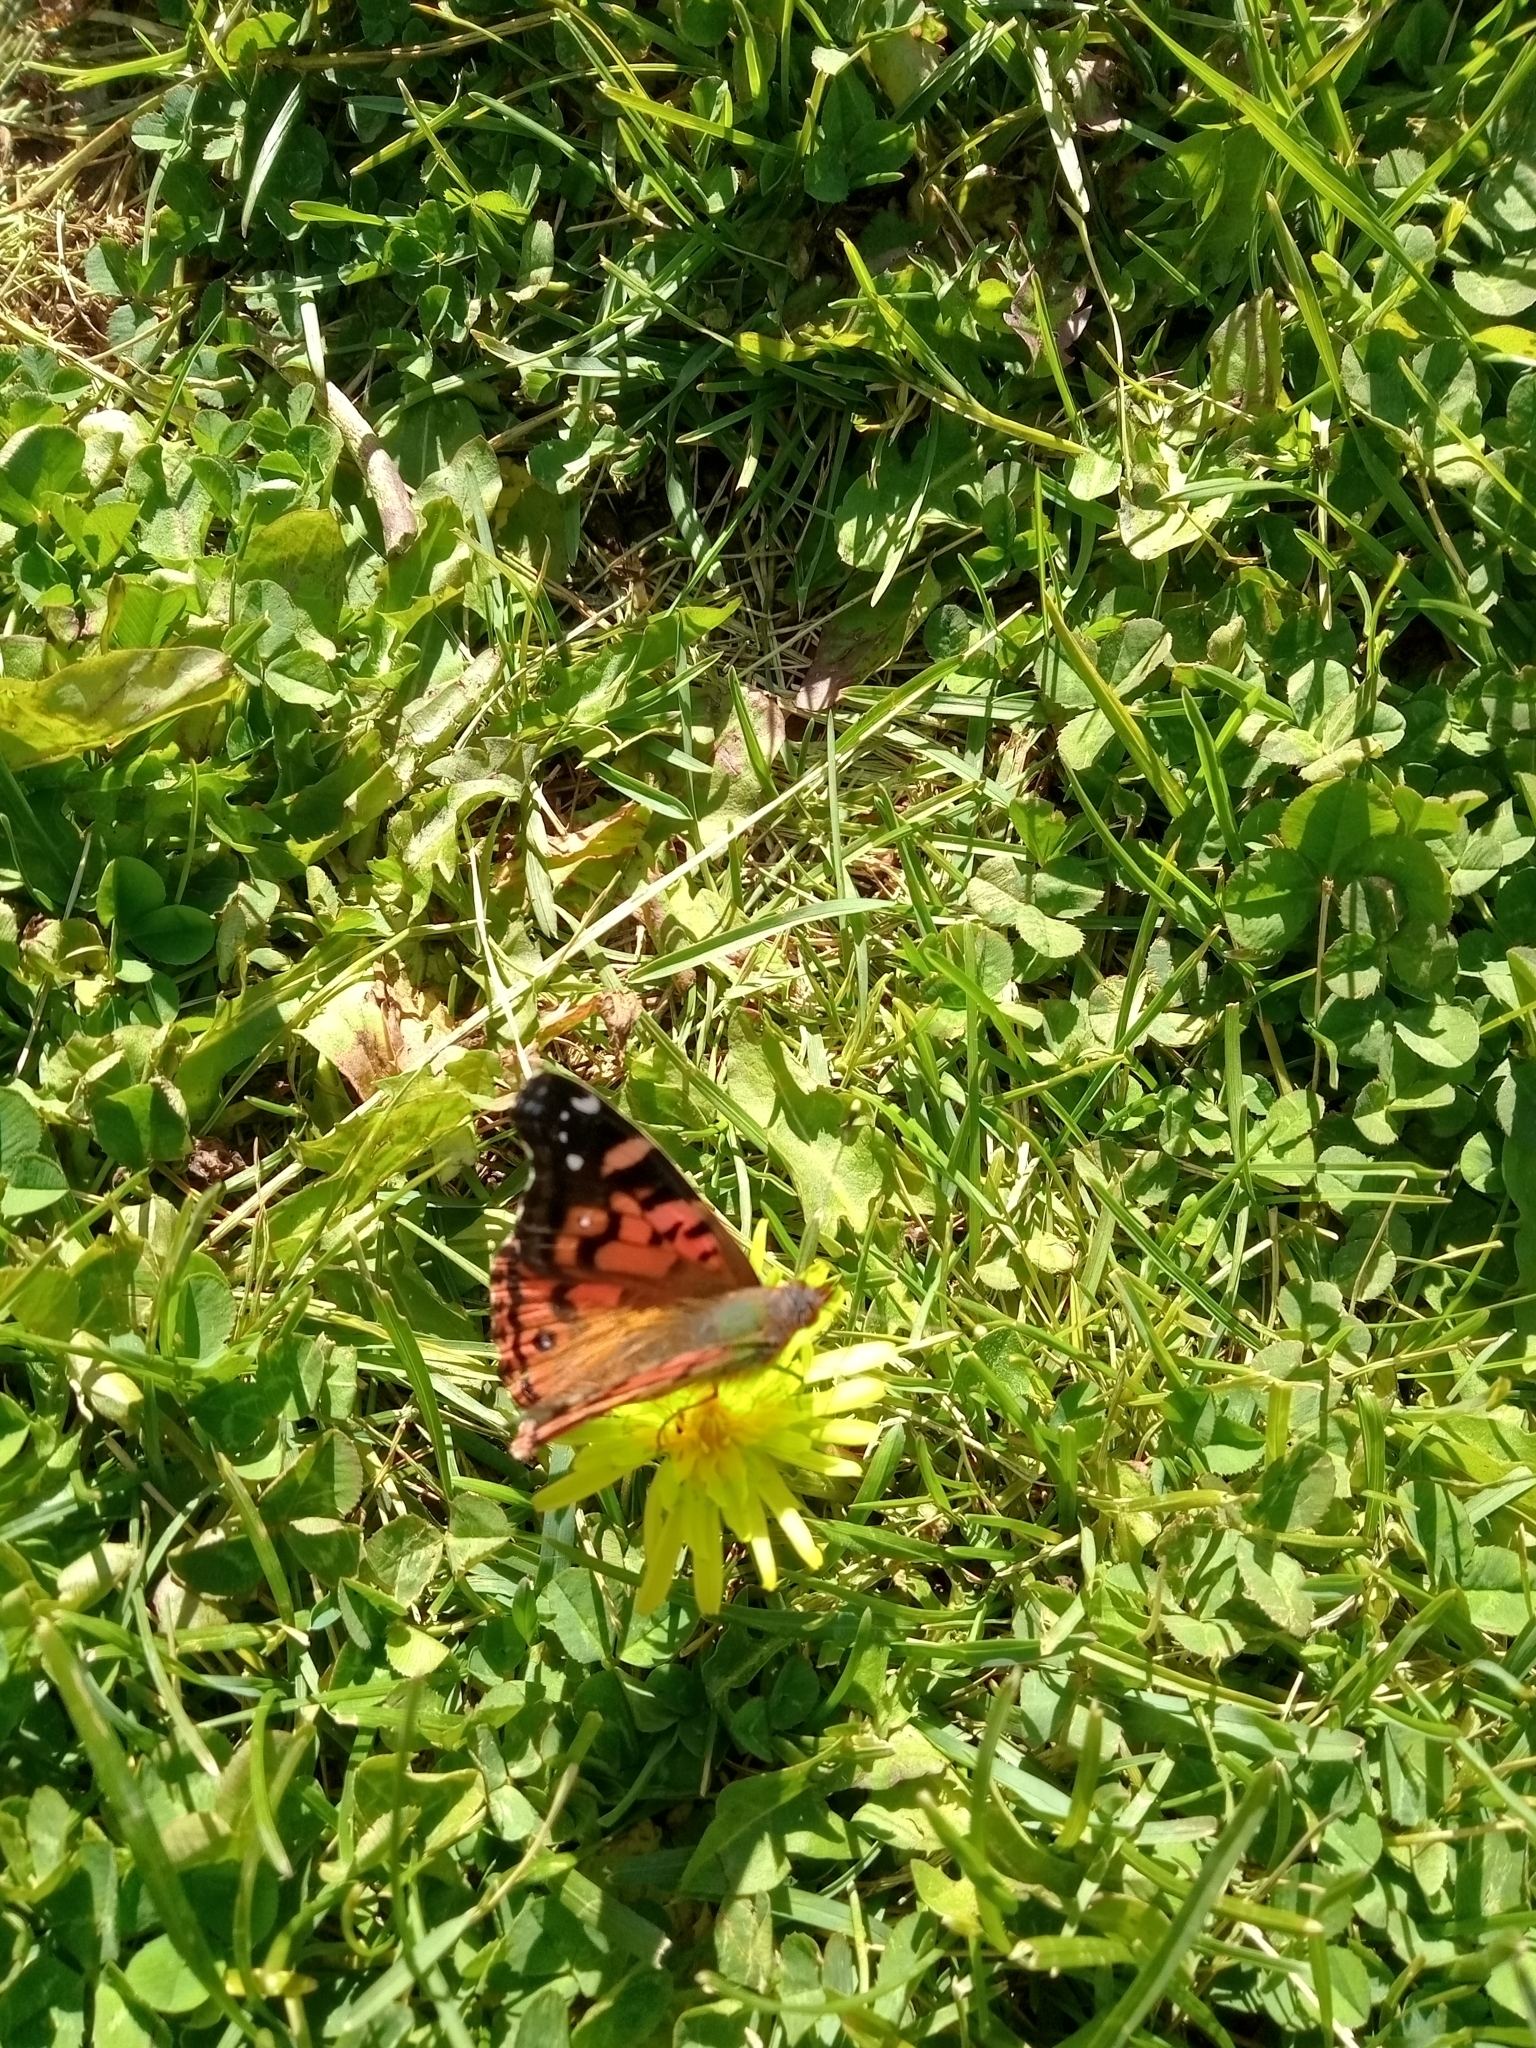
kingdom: Animalia
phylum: Arthropoda
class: Insecta
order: Lepidoptera
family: Nymphalidae
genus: Vanessa
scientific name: Vanessa terpsichore
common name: Chilean lady
